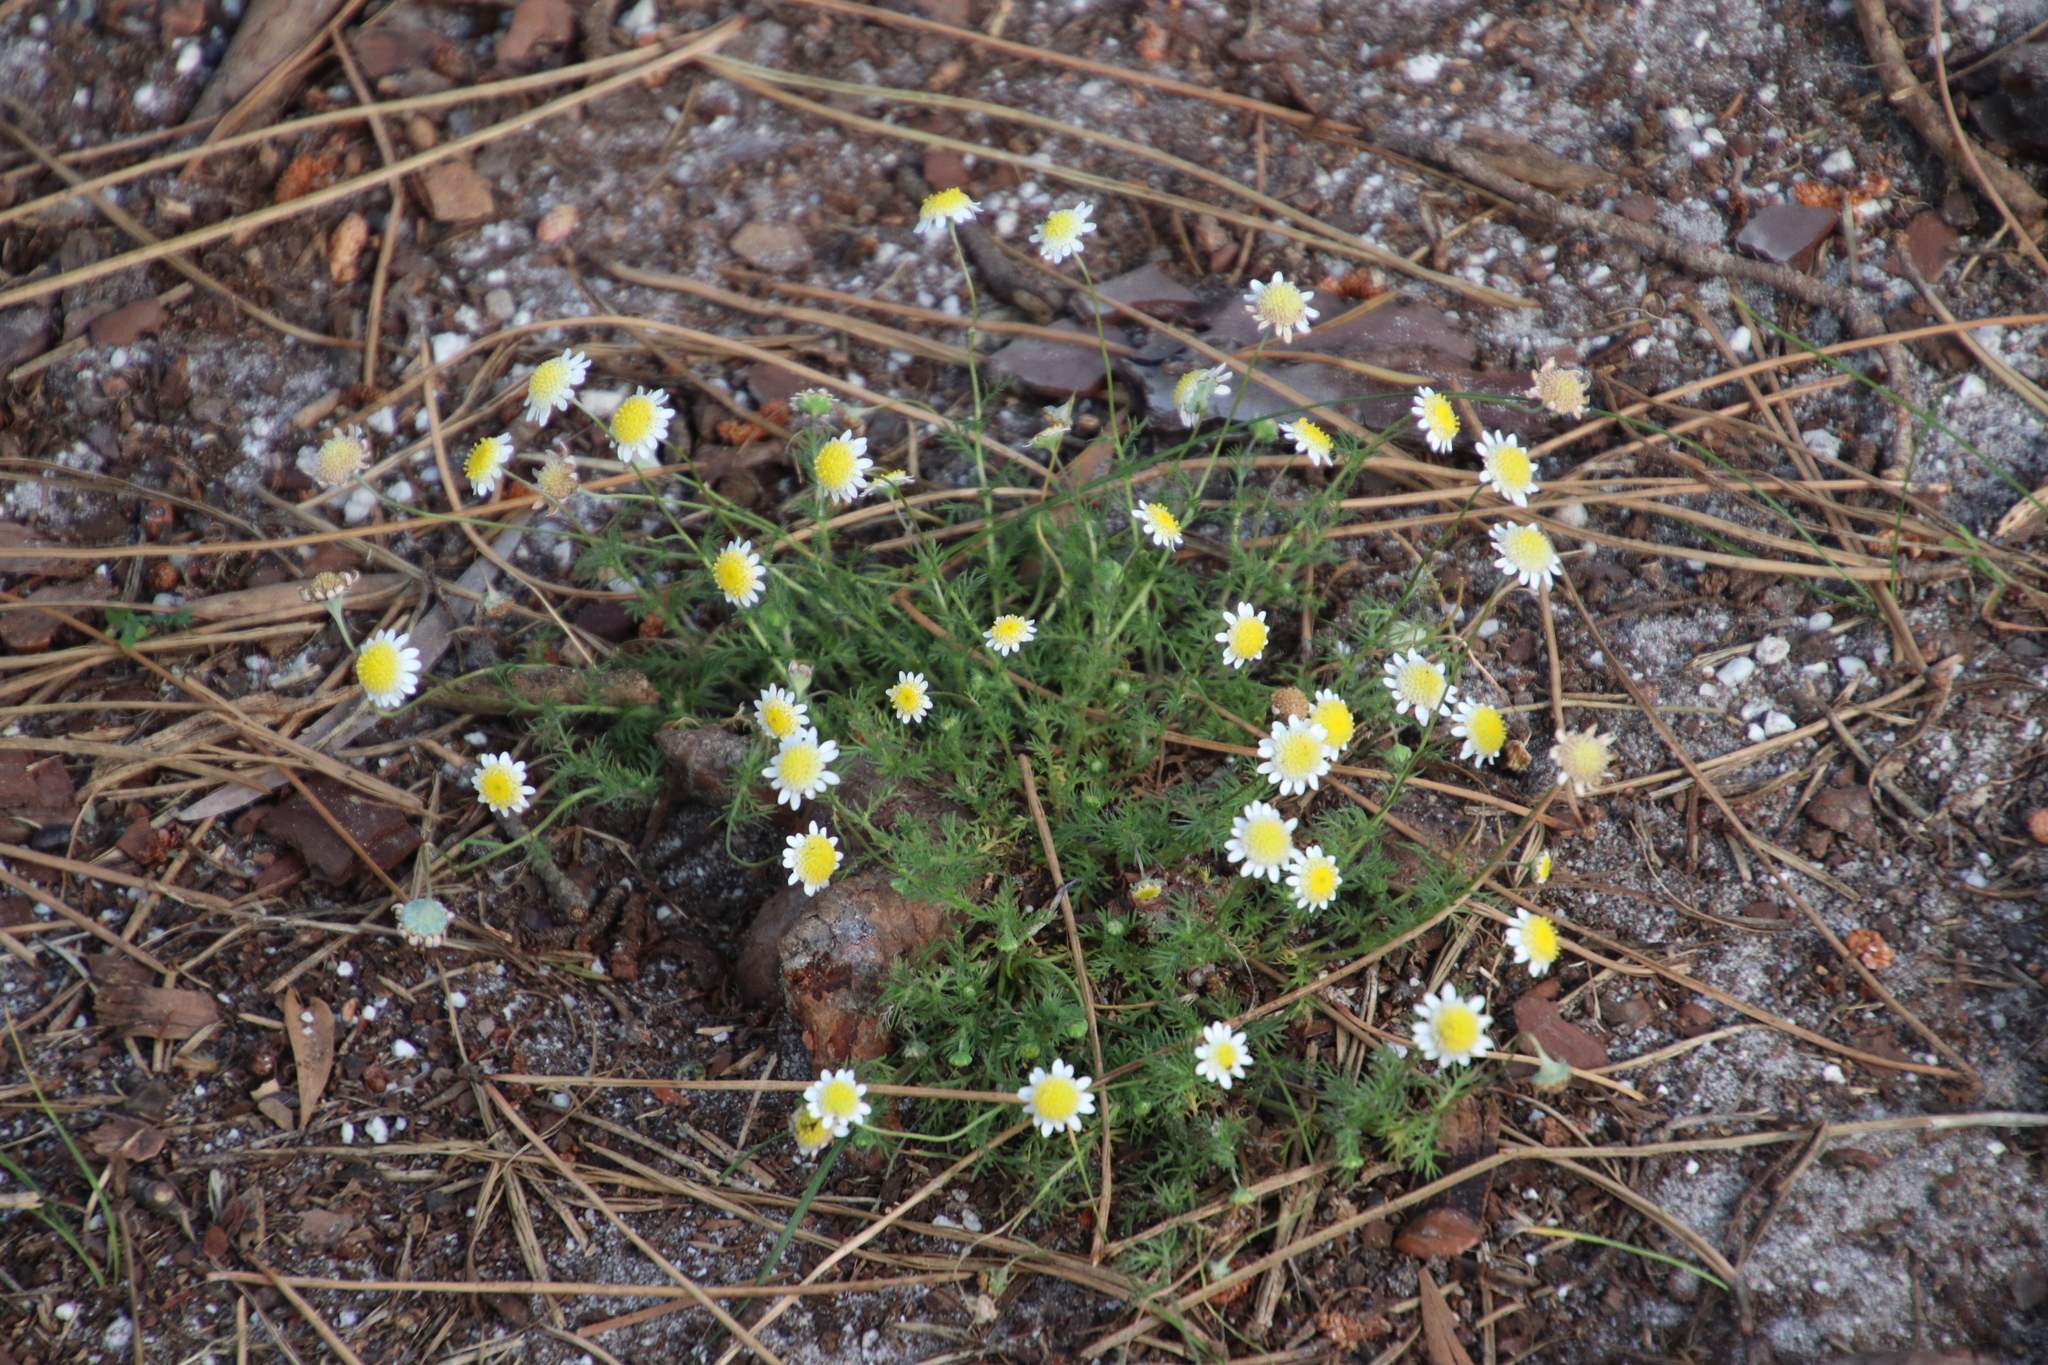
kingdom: Plantae
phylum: Tracheophyta
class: Magnoliopsida
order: Asterales
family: Asteraceae
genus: Cotula
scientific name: Cotula turbinata
